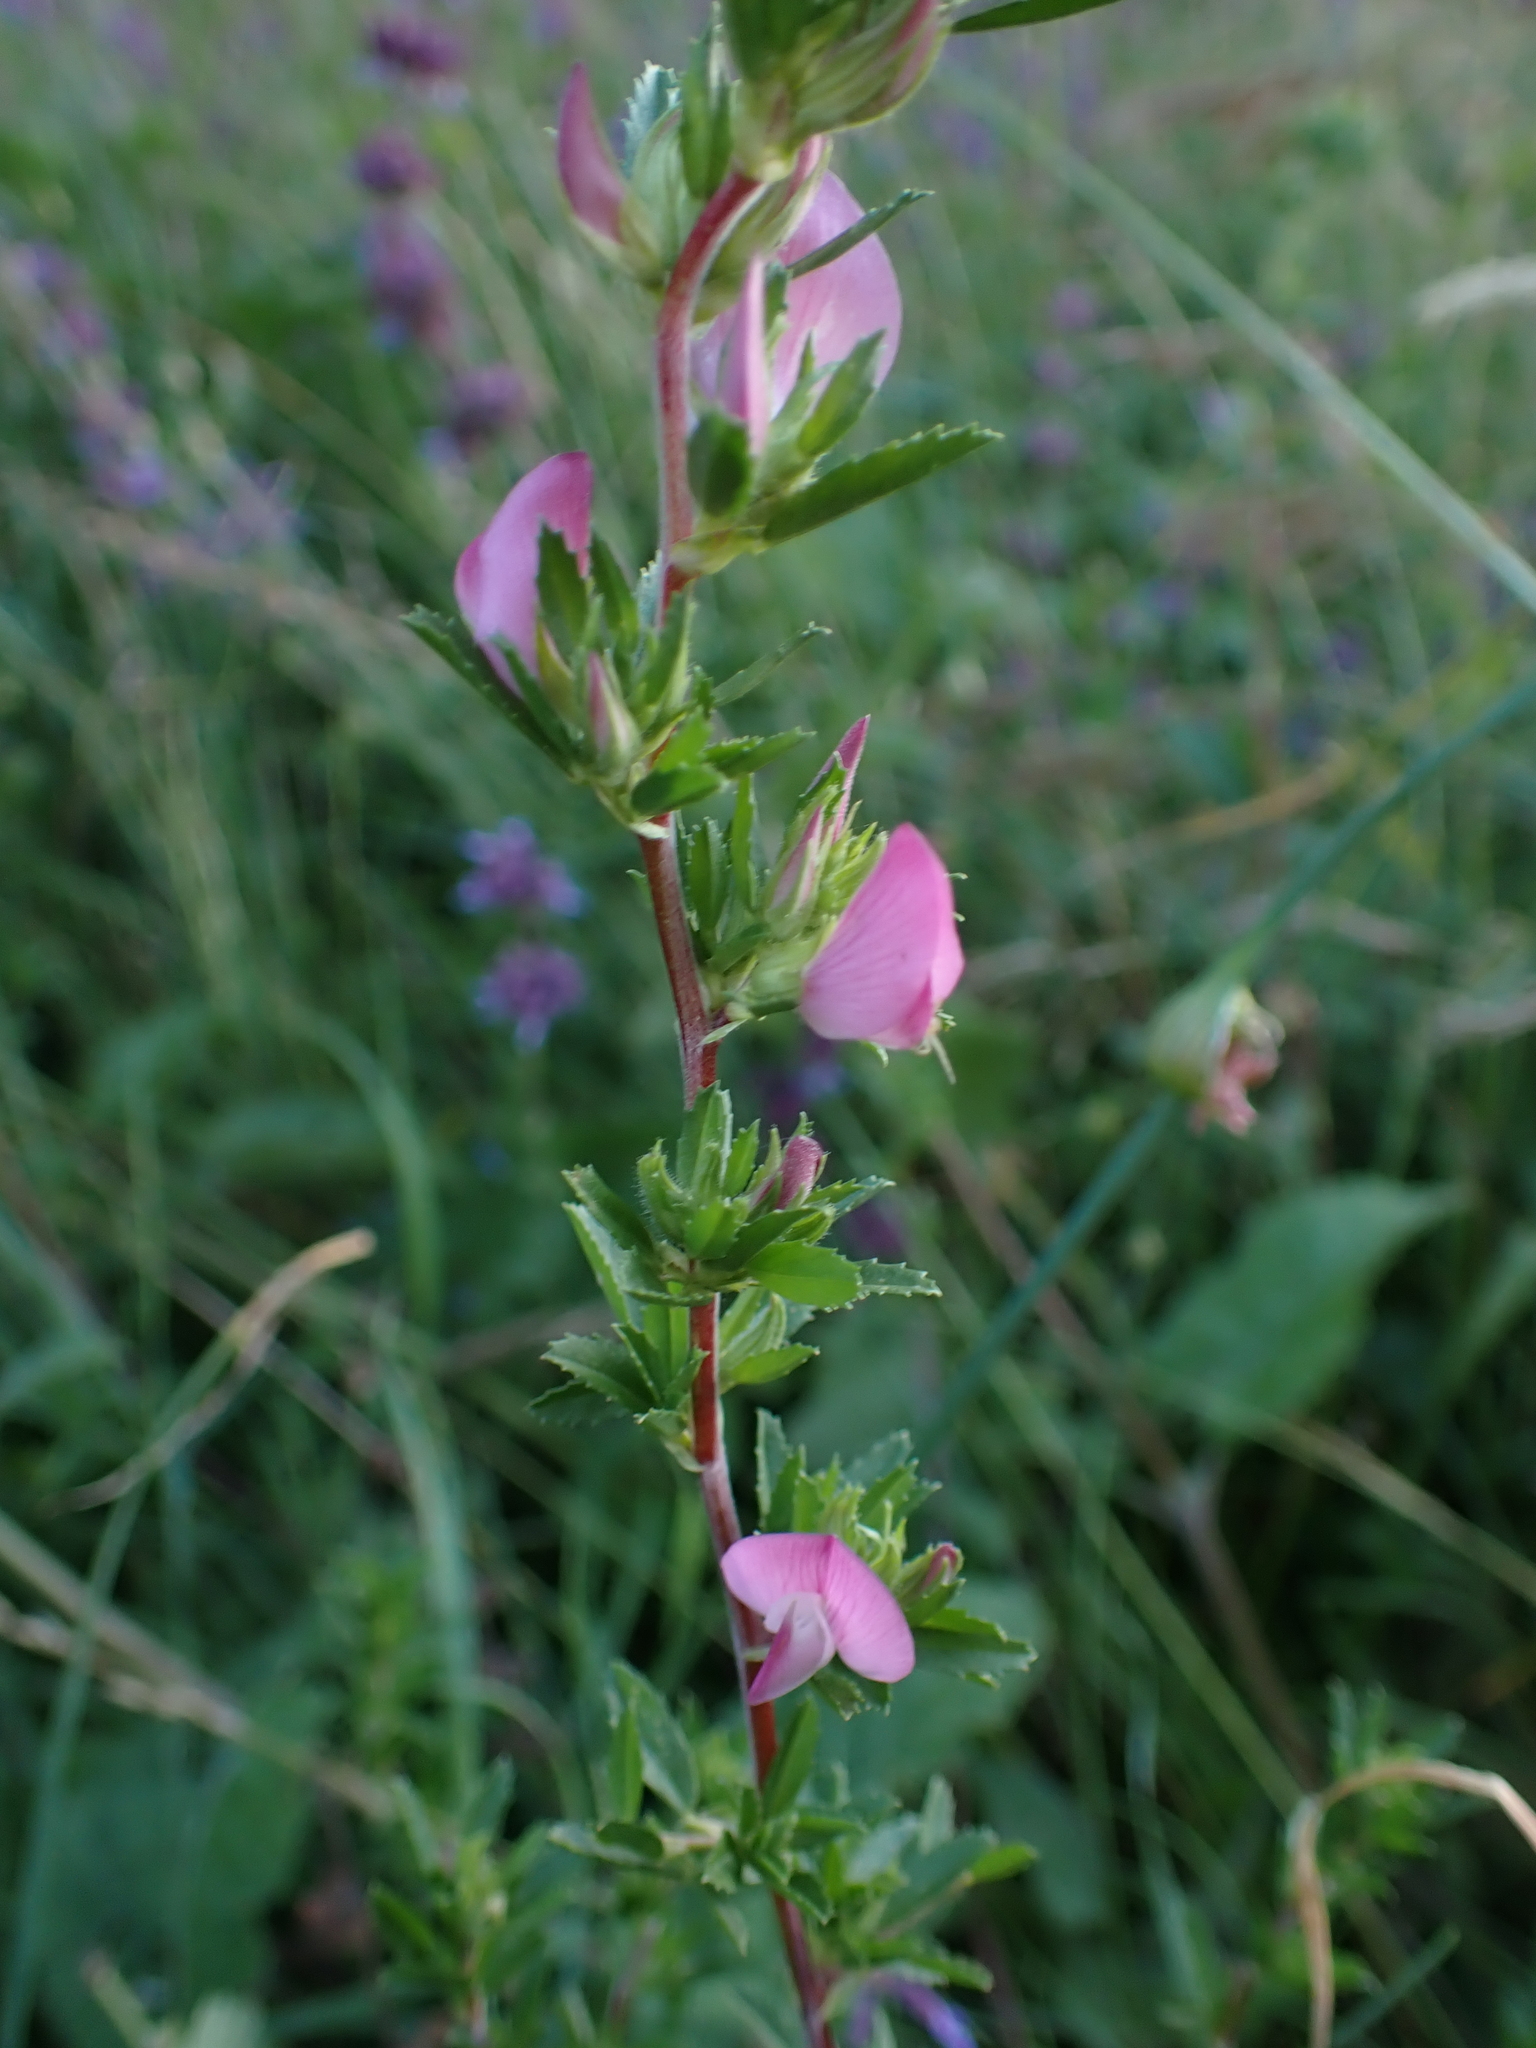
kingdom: Plantae
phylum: Tracheophyta
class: Magnoliopsida
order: Fabales
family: Fabaceae
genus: Ononis
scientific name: Ononis spinosa
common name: Spiny restharrow
